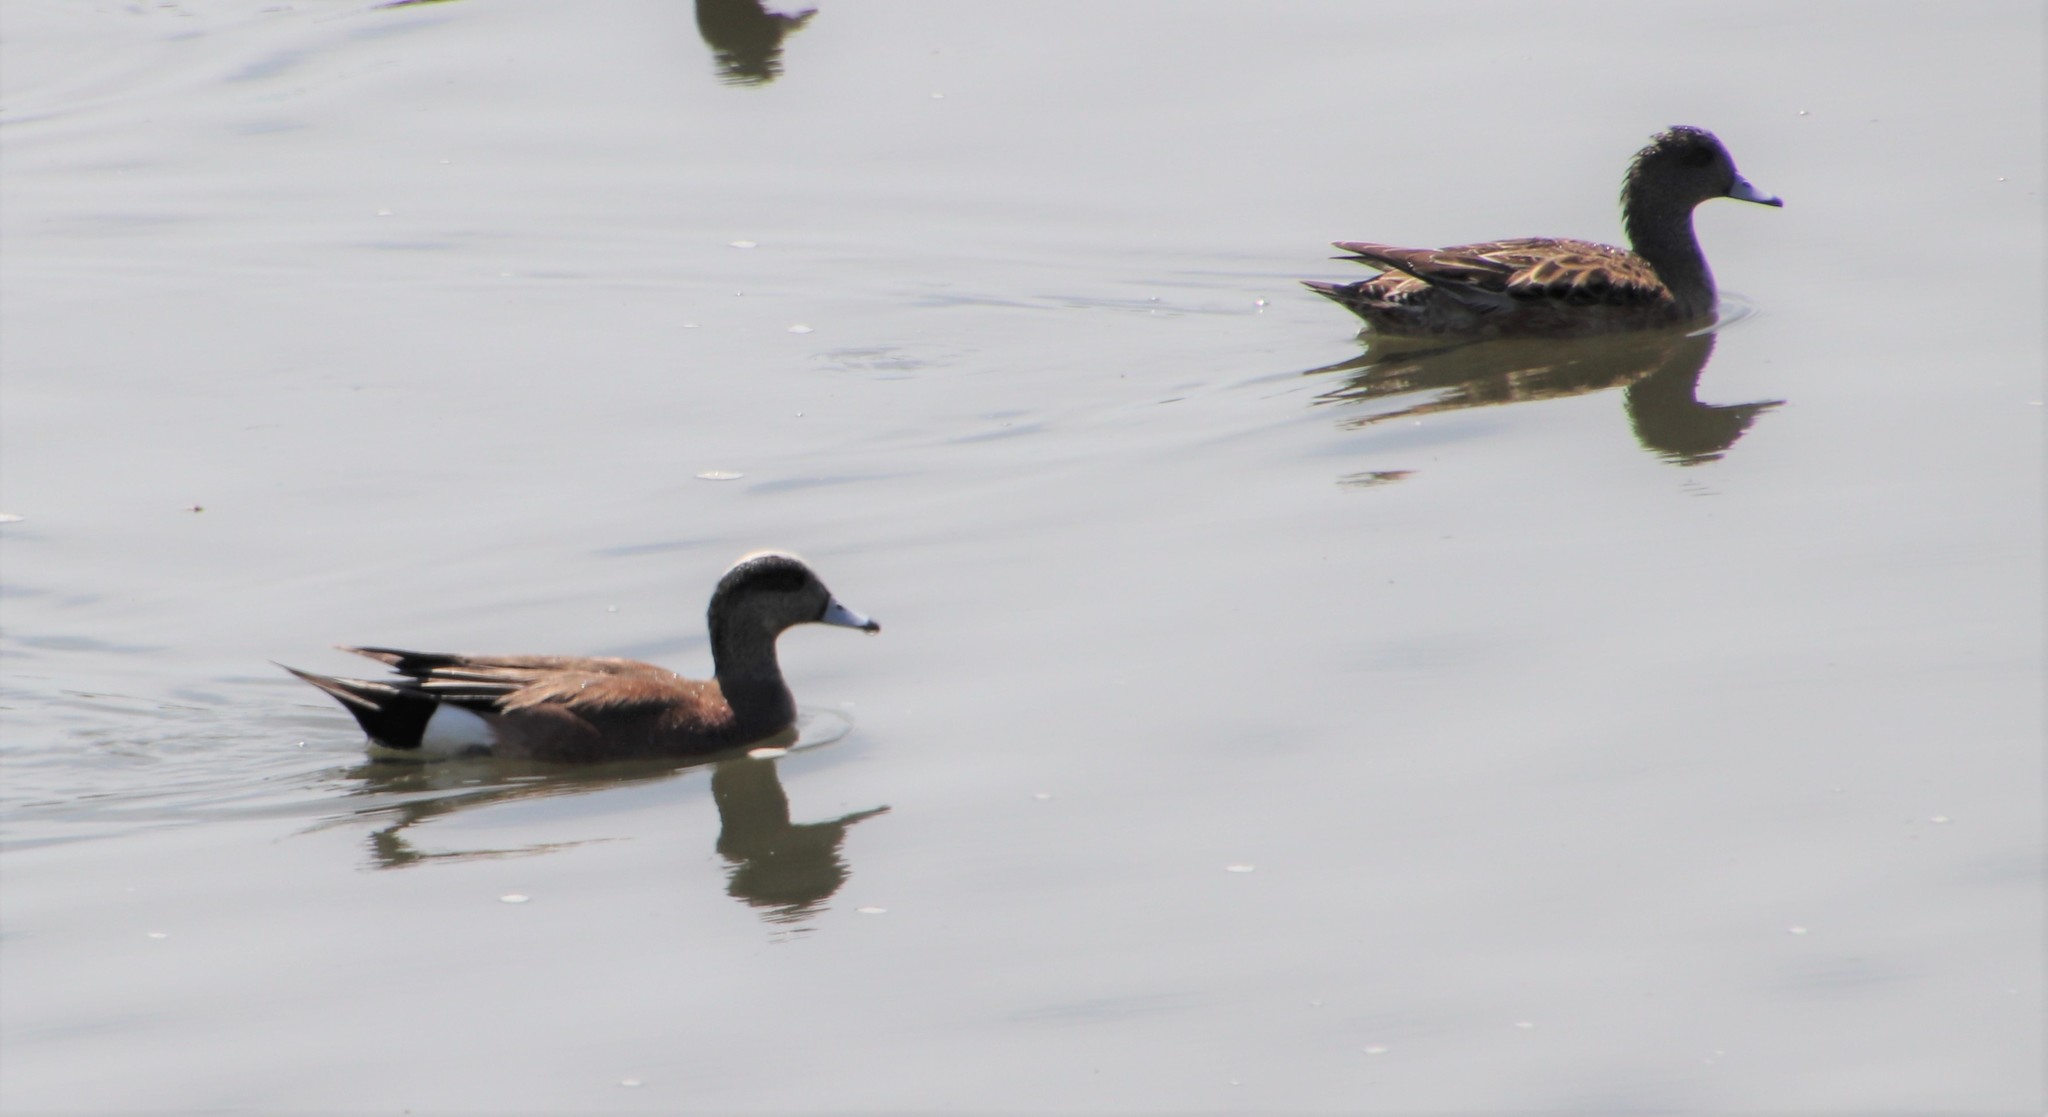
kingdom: Animalia
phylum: Chordata
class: Aves
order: Anseriformes
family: Anatidae
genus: Mareca
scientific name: Mareca americana
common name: American wigeon
